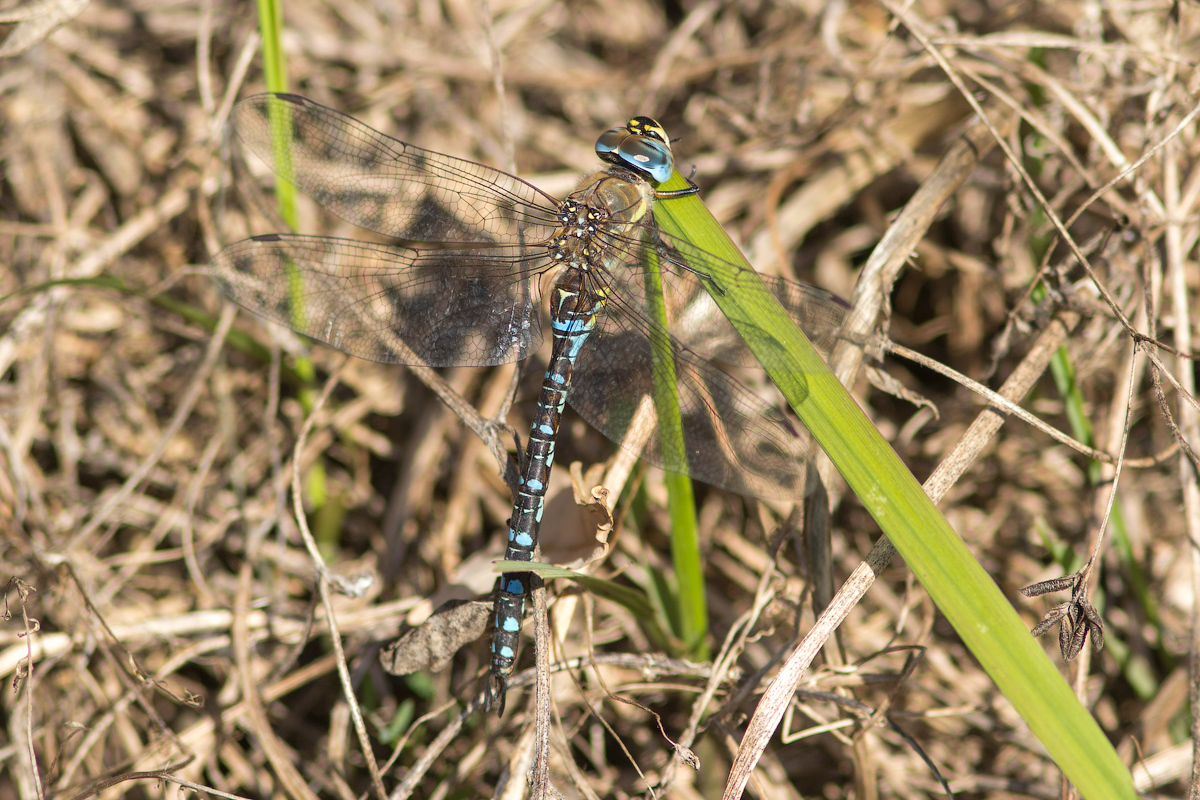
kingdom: Animalia
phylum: Arthropoda
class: Insecta
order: Odonata
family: Aeshnidae
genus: Aeshna
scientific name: Aeshna mixta
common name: Migrant hawker
